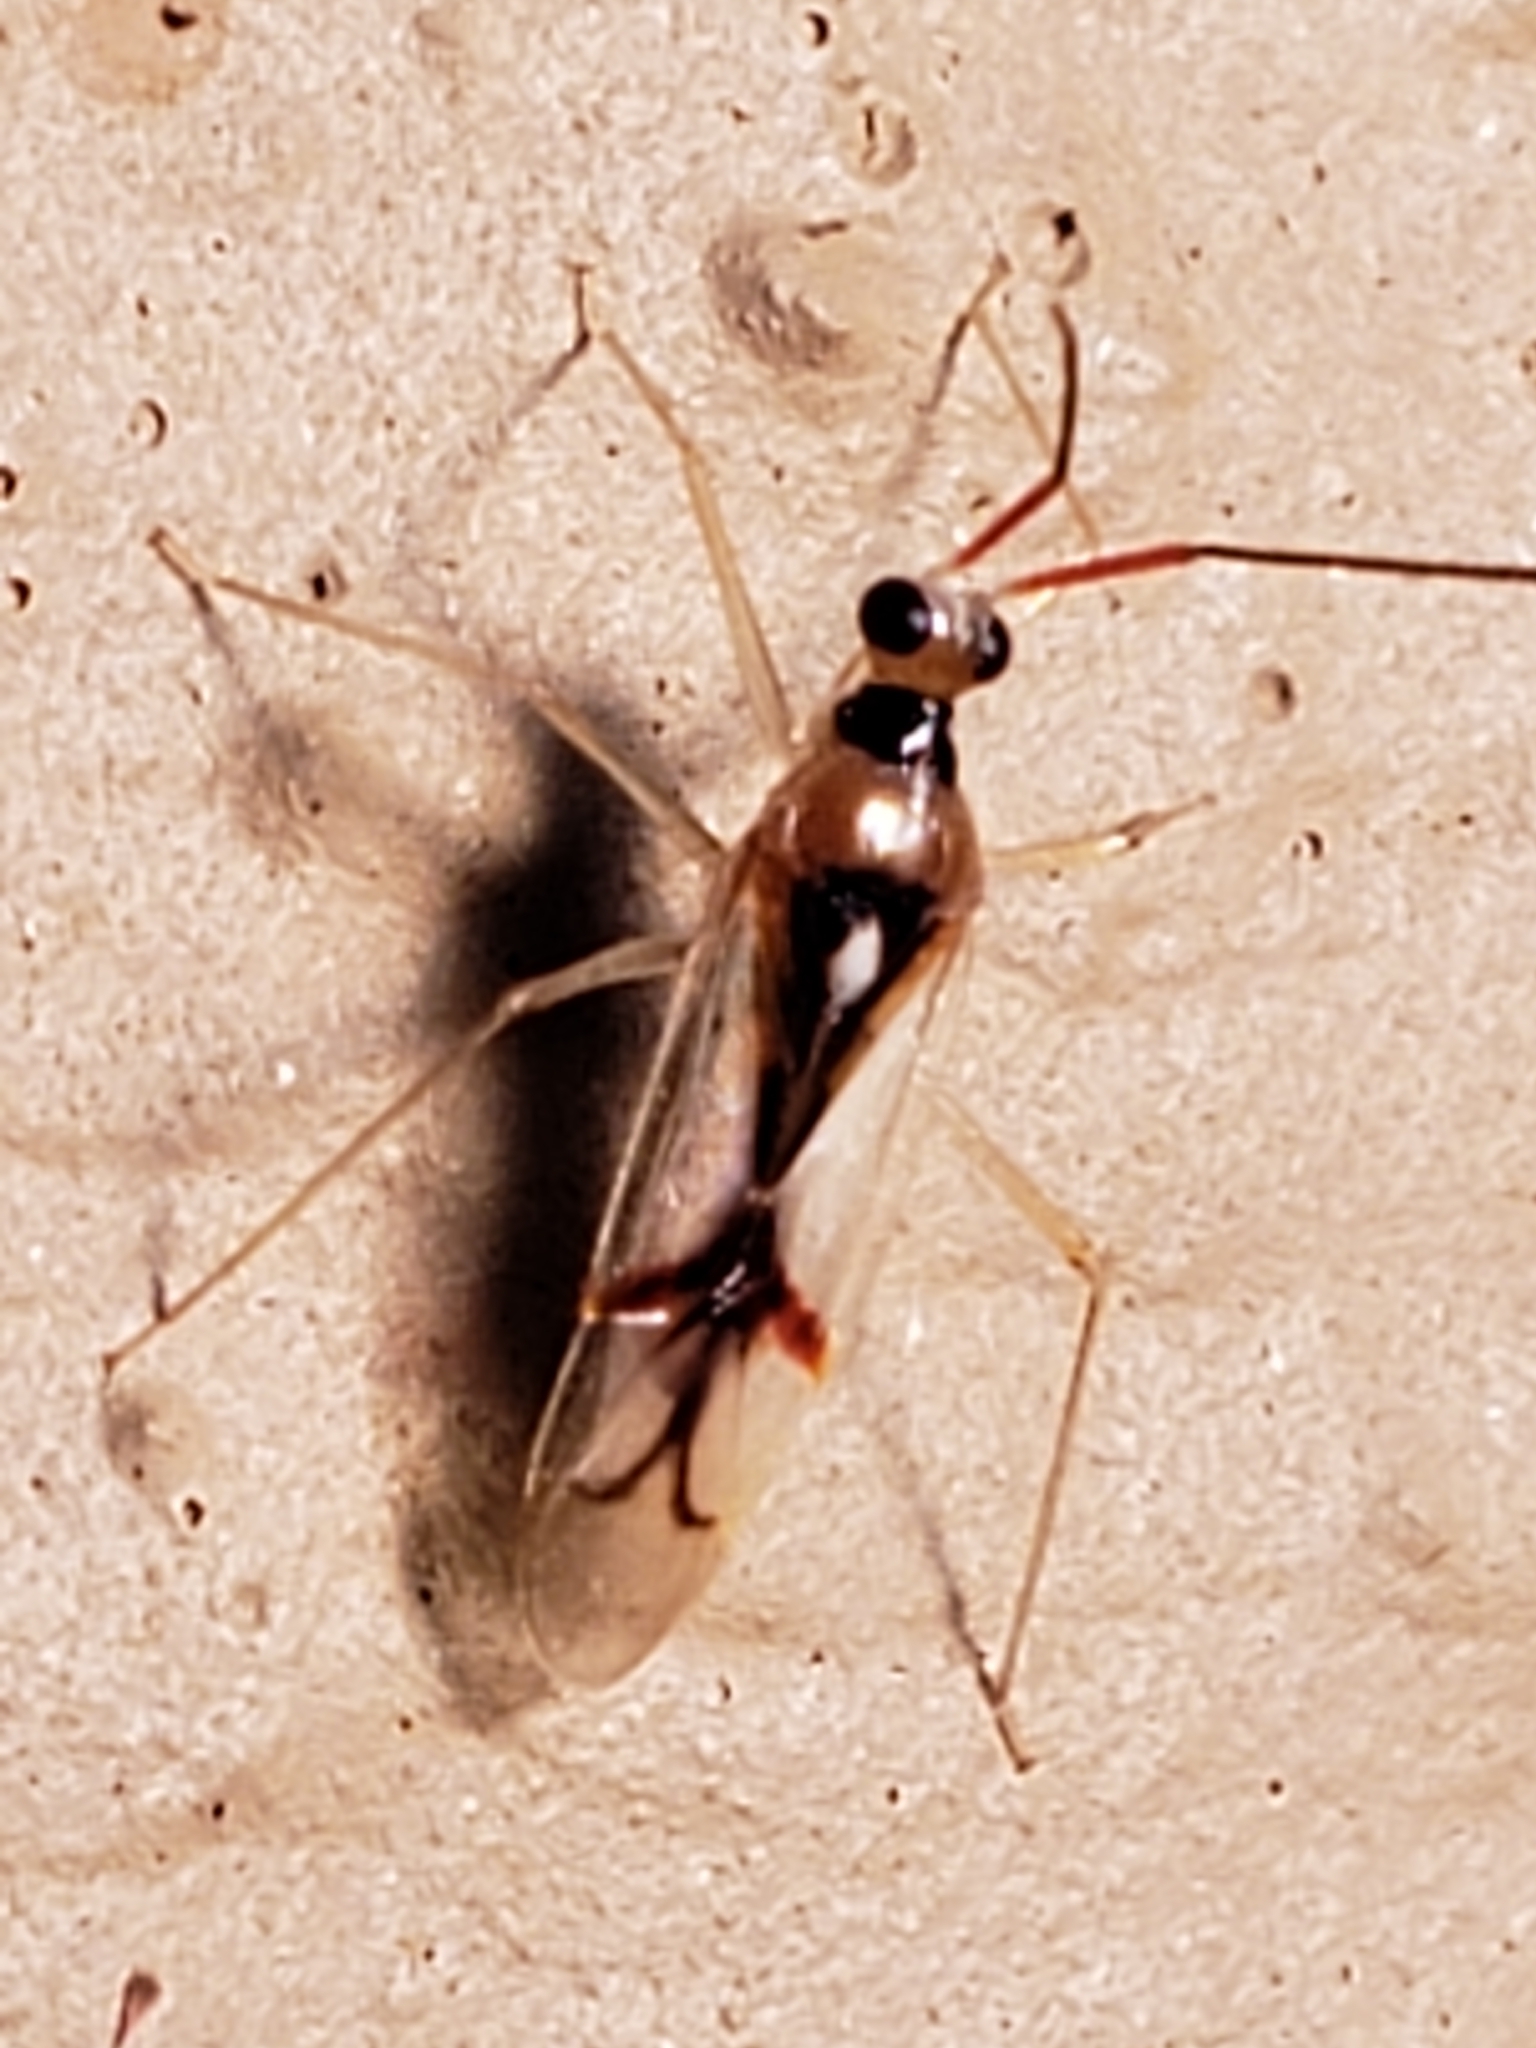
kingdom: Animalia
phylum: Arthropoda
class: Insecta
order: Hemiptera
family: Miridae
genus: Hyaliodes
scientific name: Hyaliodes harti
